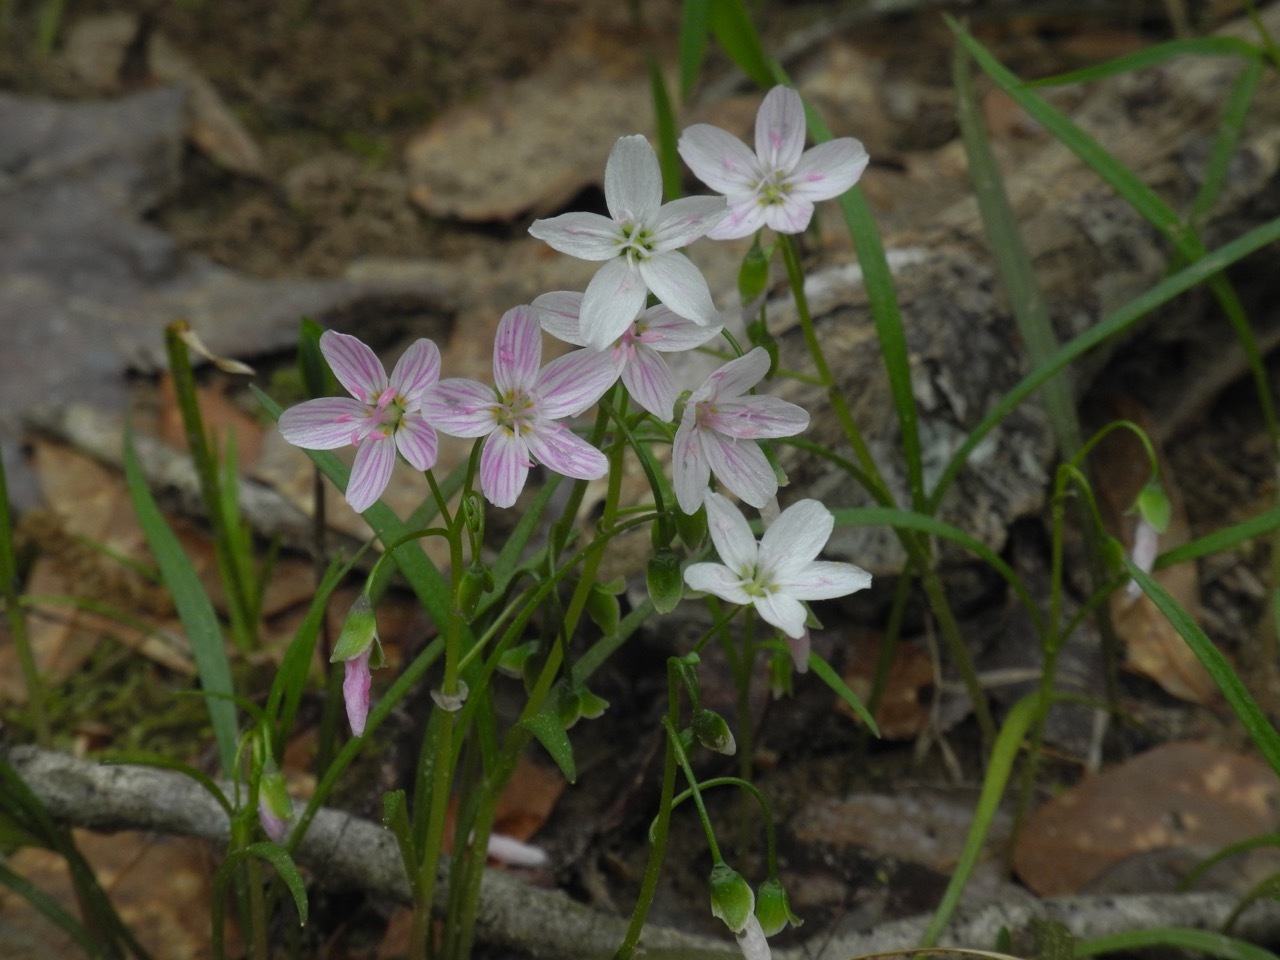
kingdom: Plantae
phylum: Tracheophyta
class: Magnoliopsida
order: Caryophyllales
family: Montiaceae
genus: Claytonia
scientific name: Claytonia virginica
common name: Virginia springbeauty
